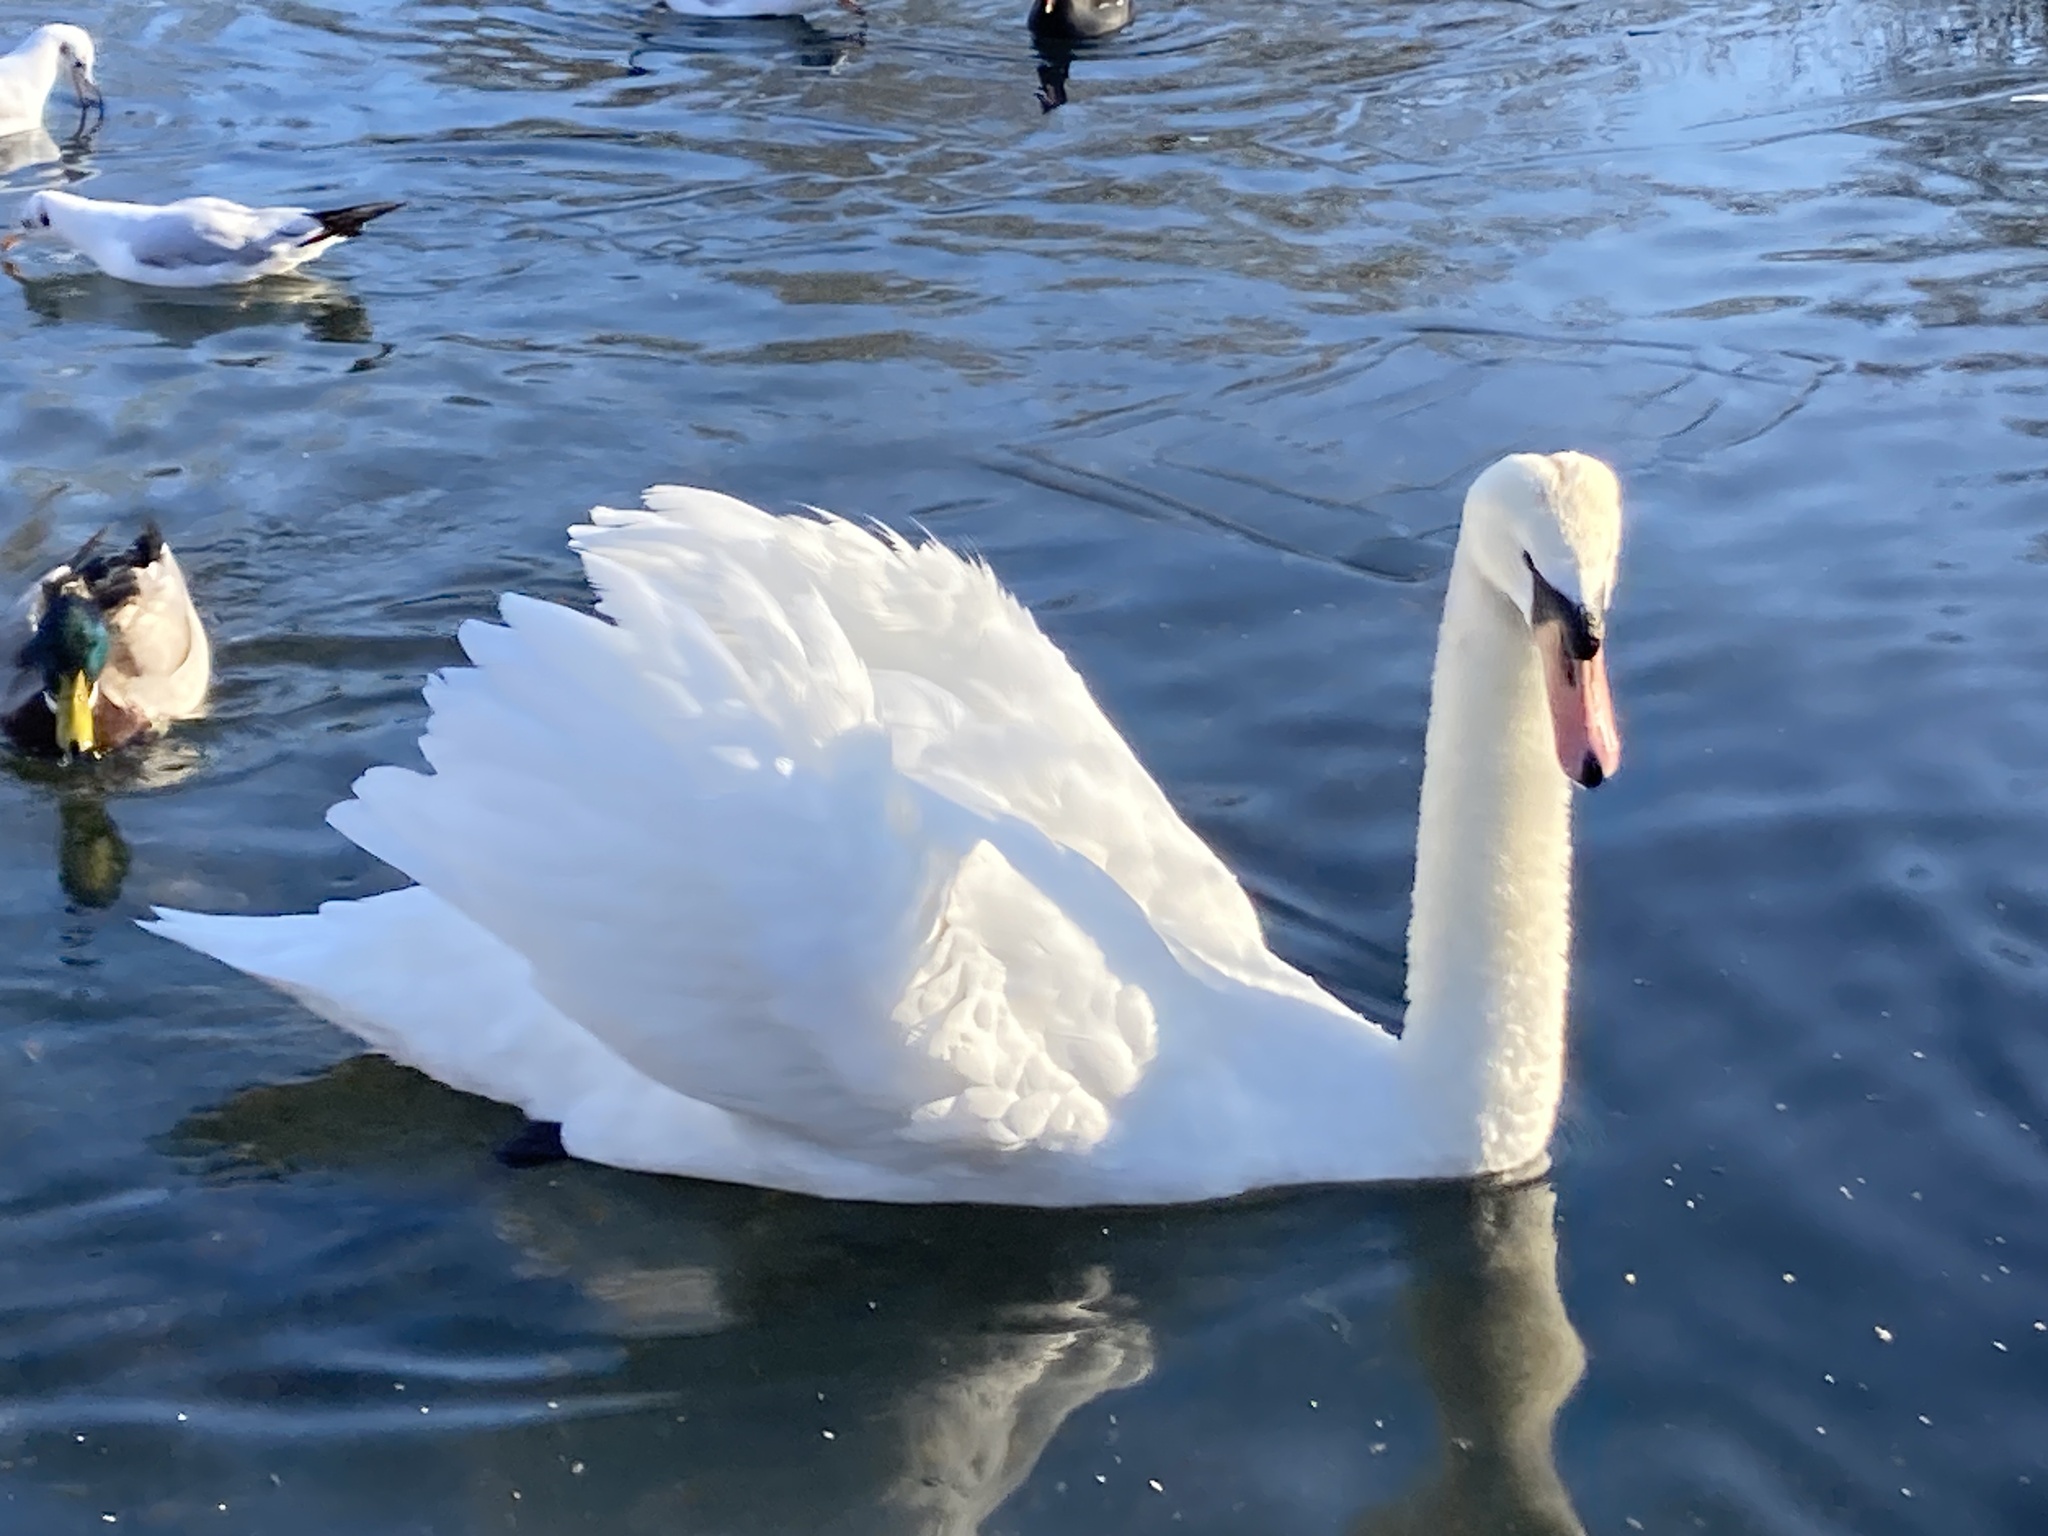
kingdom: Animalia
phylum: Chordata
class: Aves
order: Anseriformes
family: Anatidae
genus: Cygnus
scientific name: Cygnus olor
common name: Mute swan
